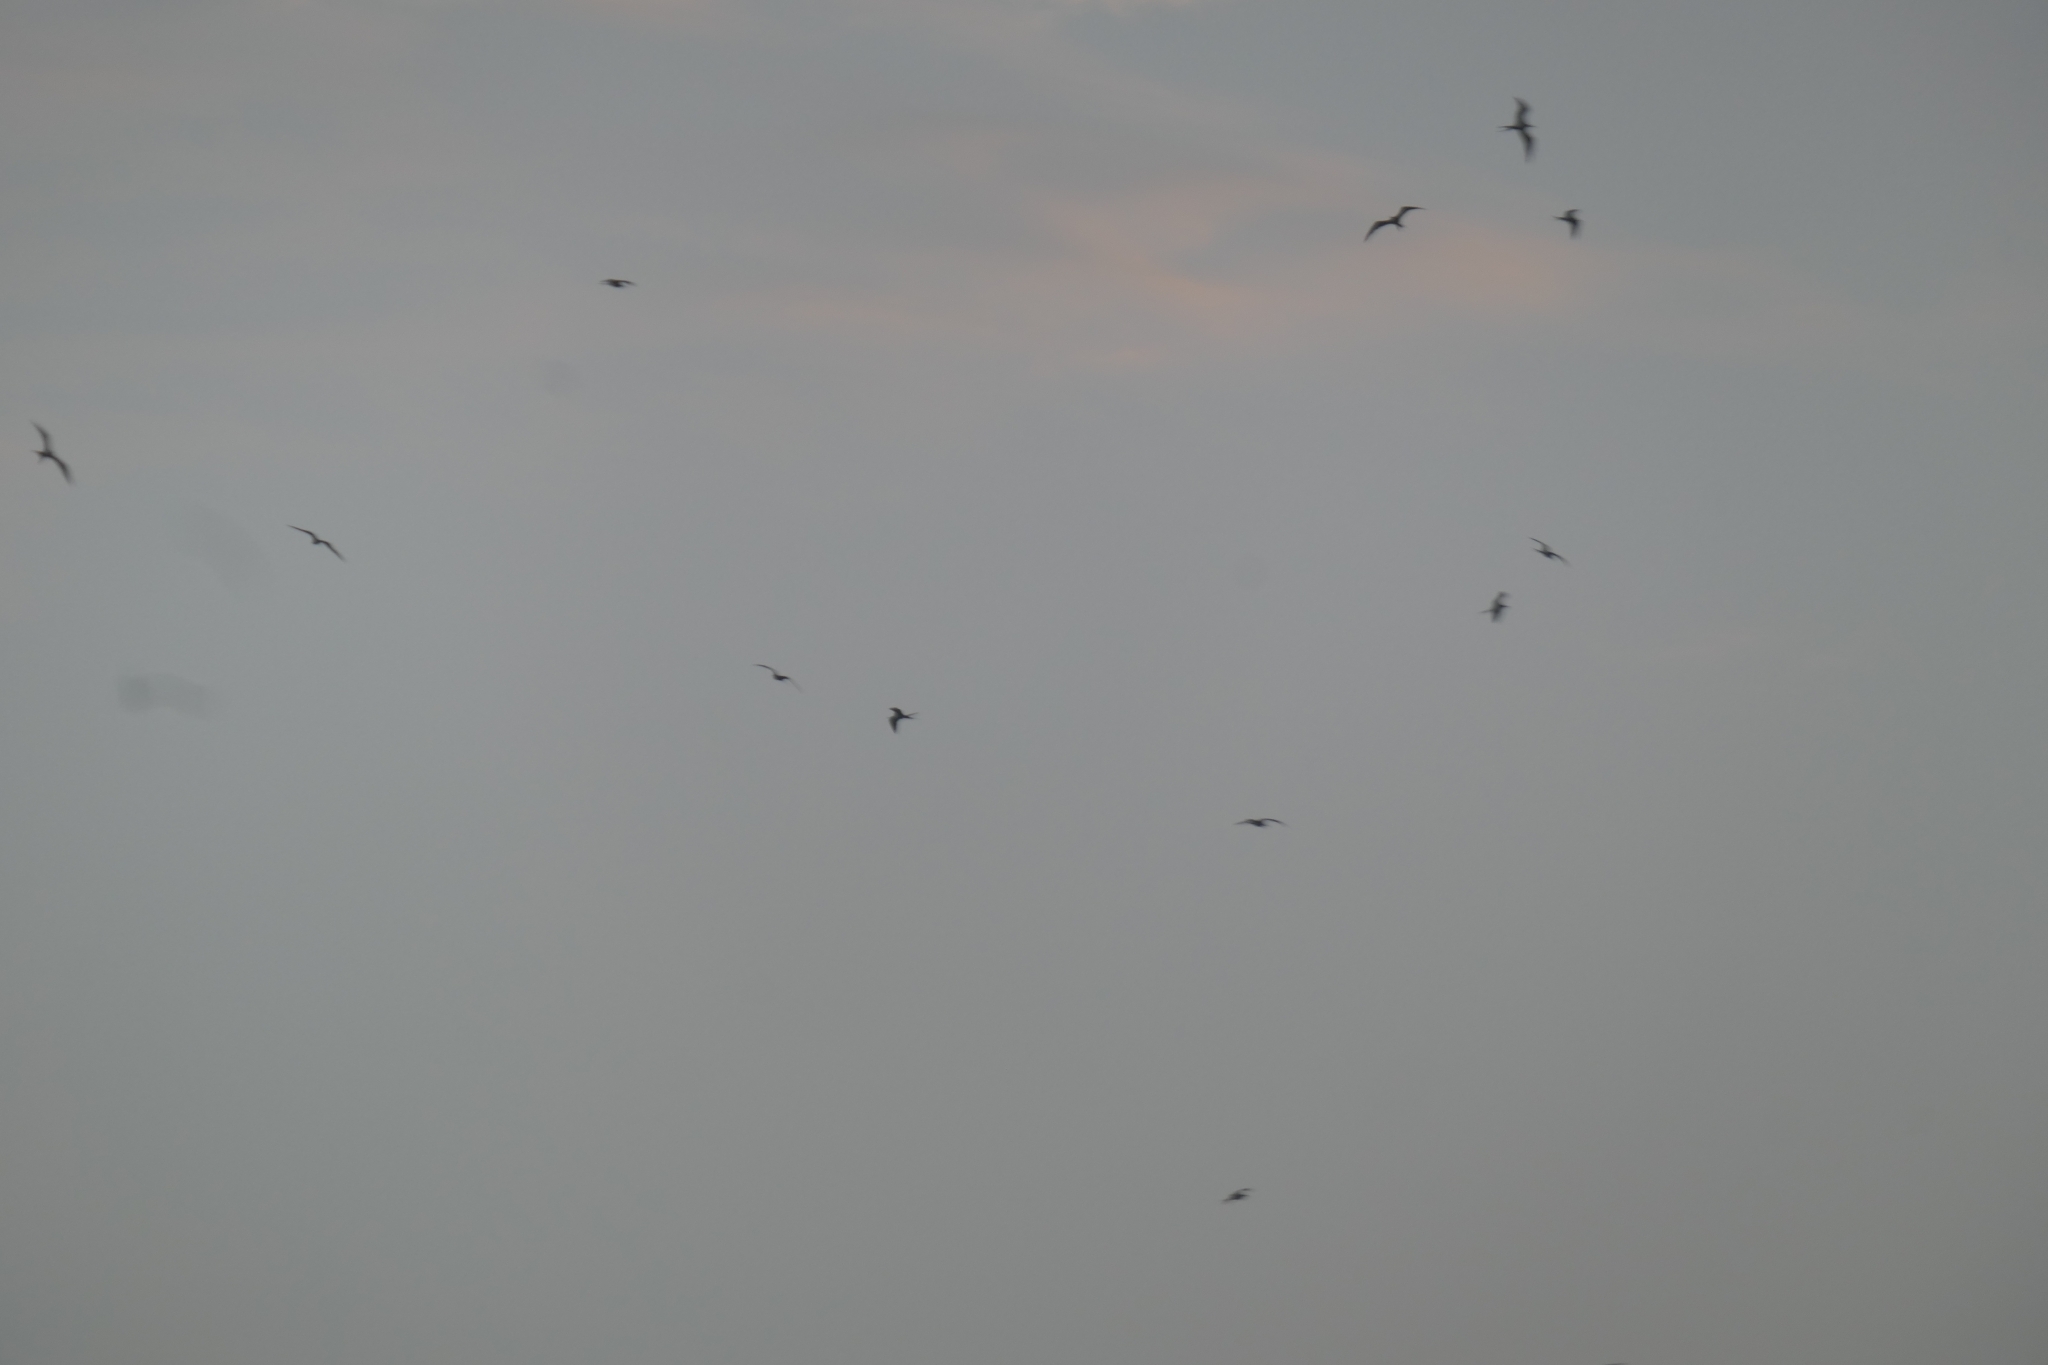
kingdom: Animalia
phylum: Chordata
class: Aves
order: Suliformes
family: Fregatidae
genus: Fregata
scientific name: Fregata magnificens
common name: Magnificent frigatebird
